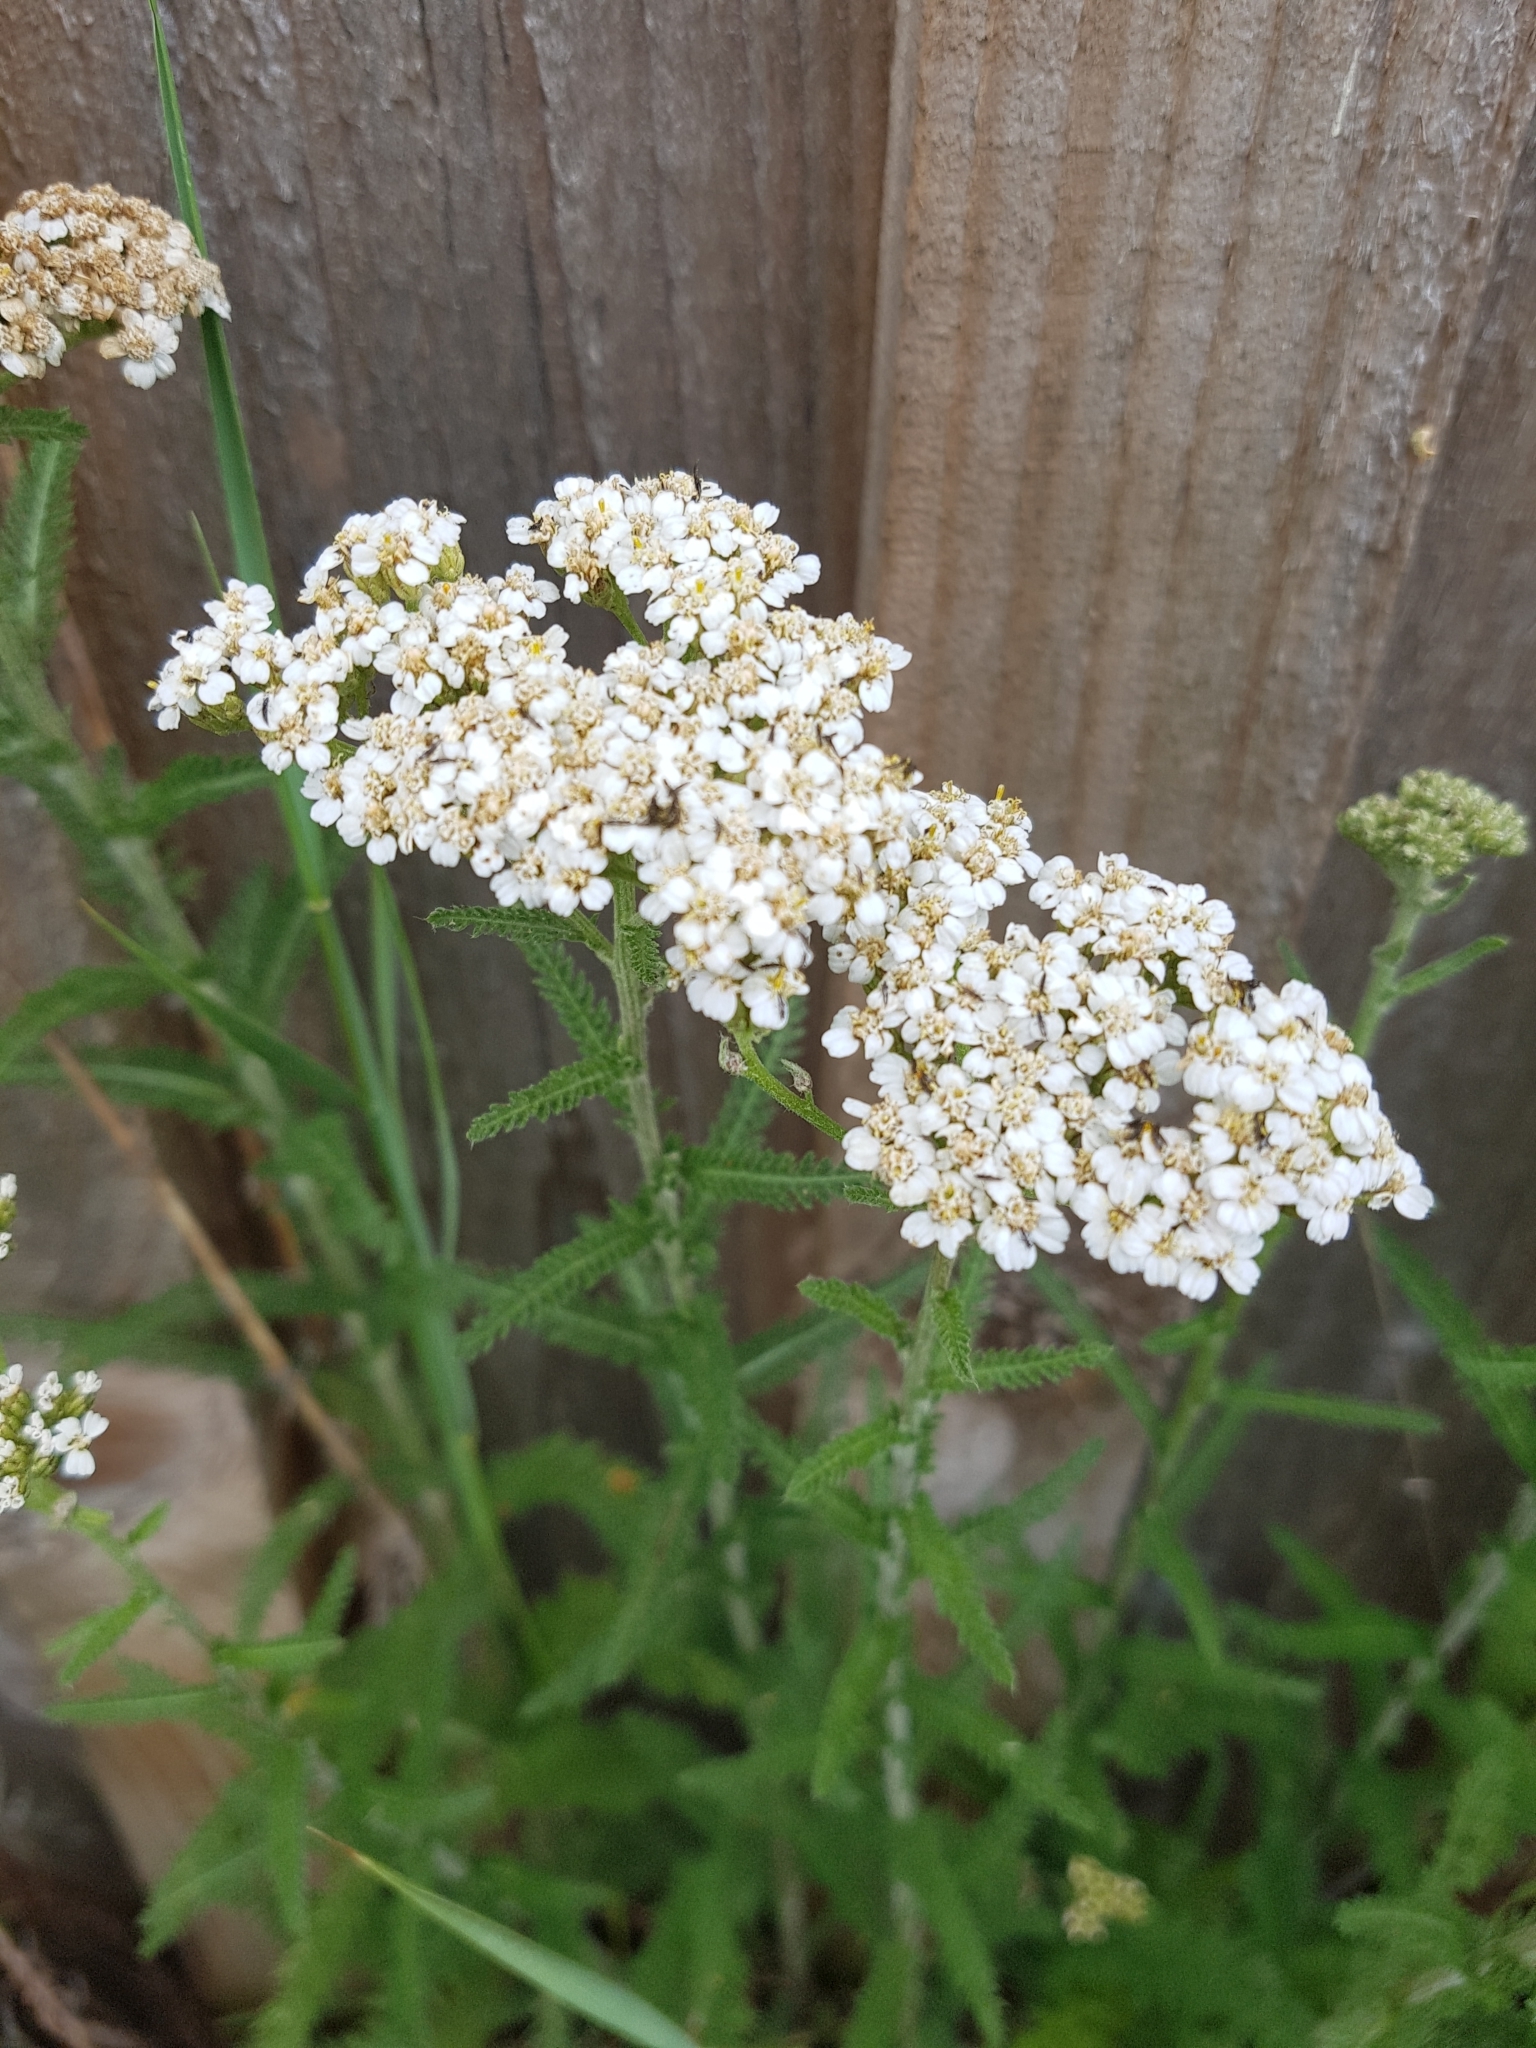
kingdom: Plantae
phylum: Tracheophyta
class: Magnoliopsida
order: Asterales
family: Asteraceae
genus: Achillea
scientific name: Achillea millefolium
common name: Yarrow
